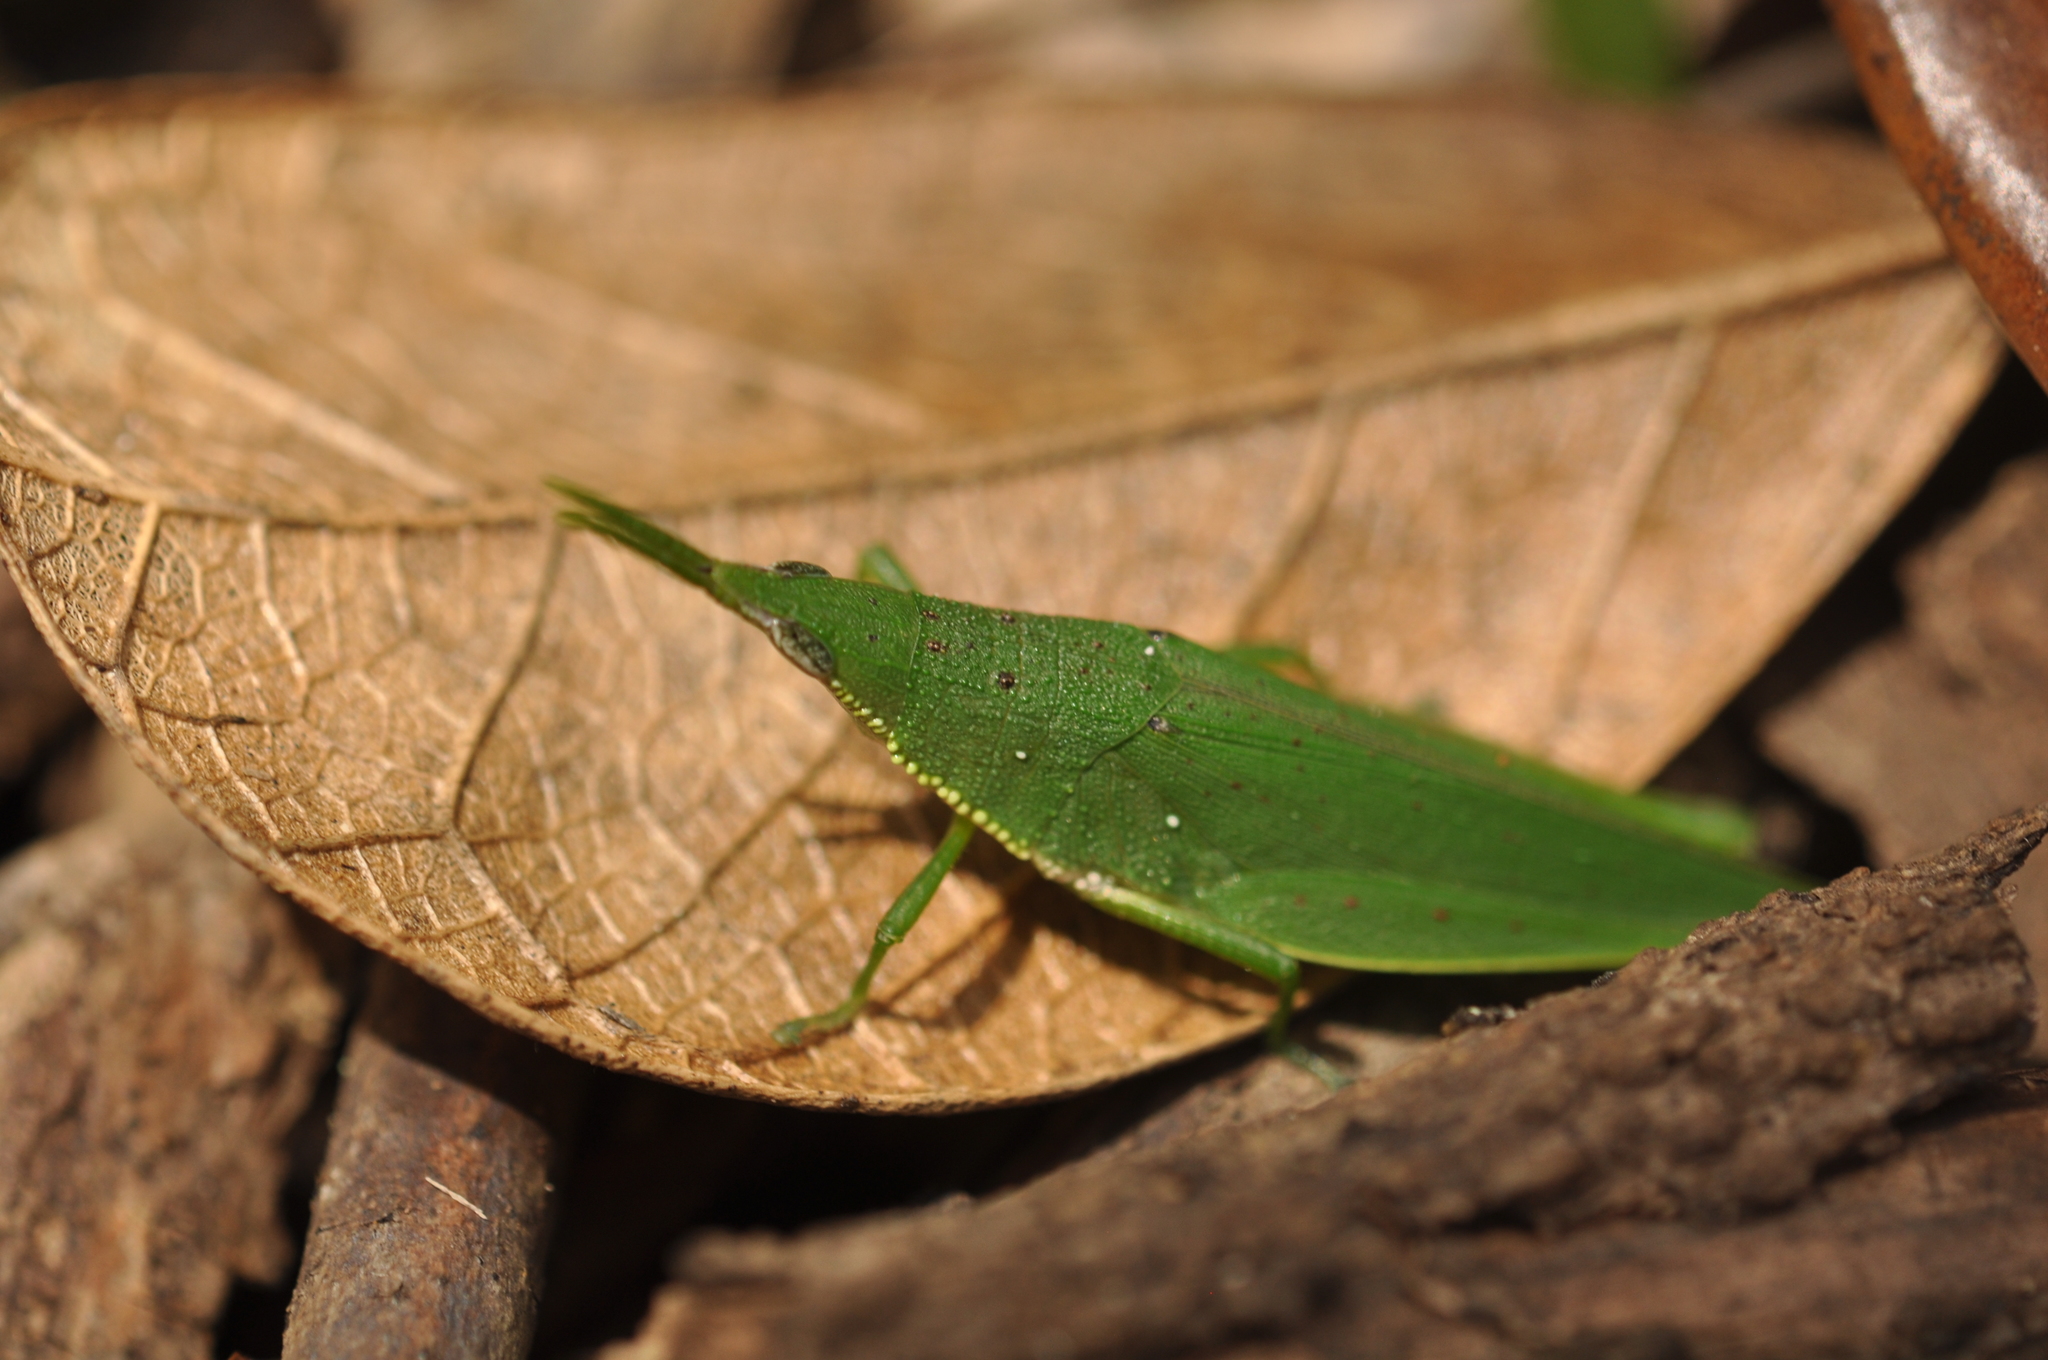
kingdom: Animalia
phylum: Arthropoda
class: Insecta
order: Orthoptera
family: Pyrgomorphidae
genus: Schulthessia
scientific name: Schulthessia biplagiata
